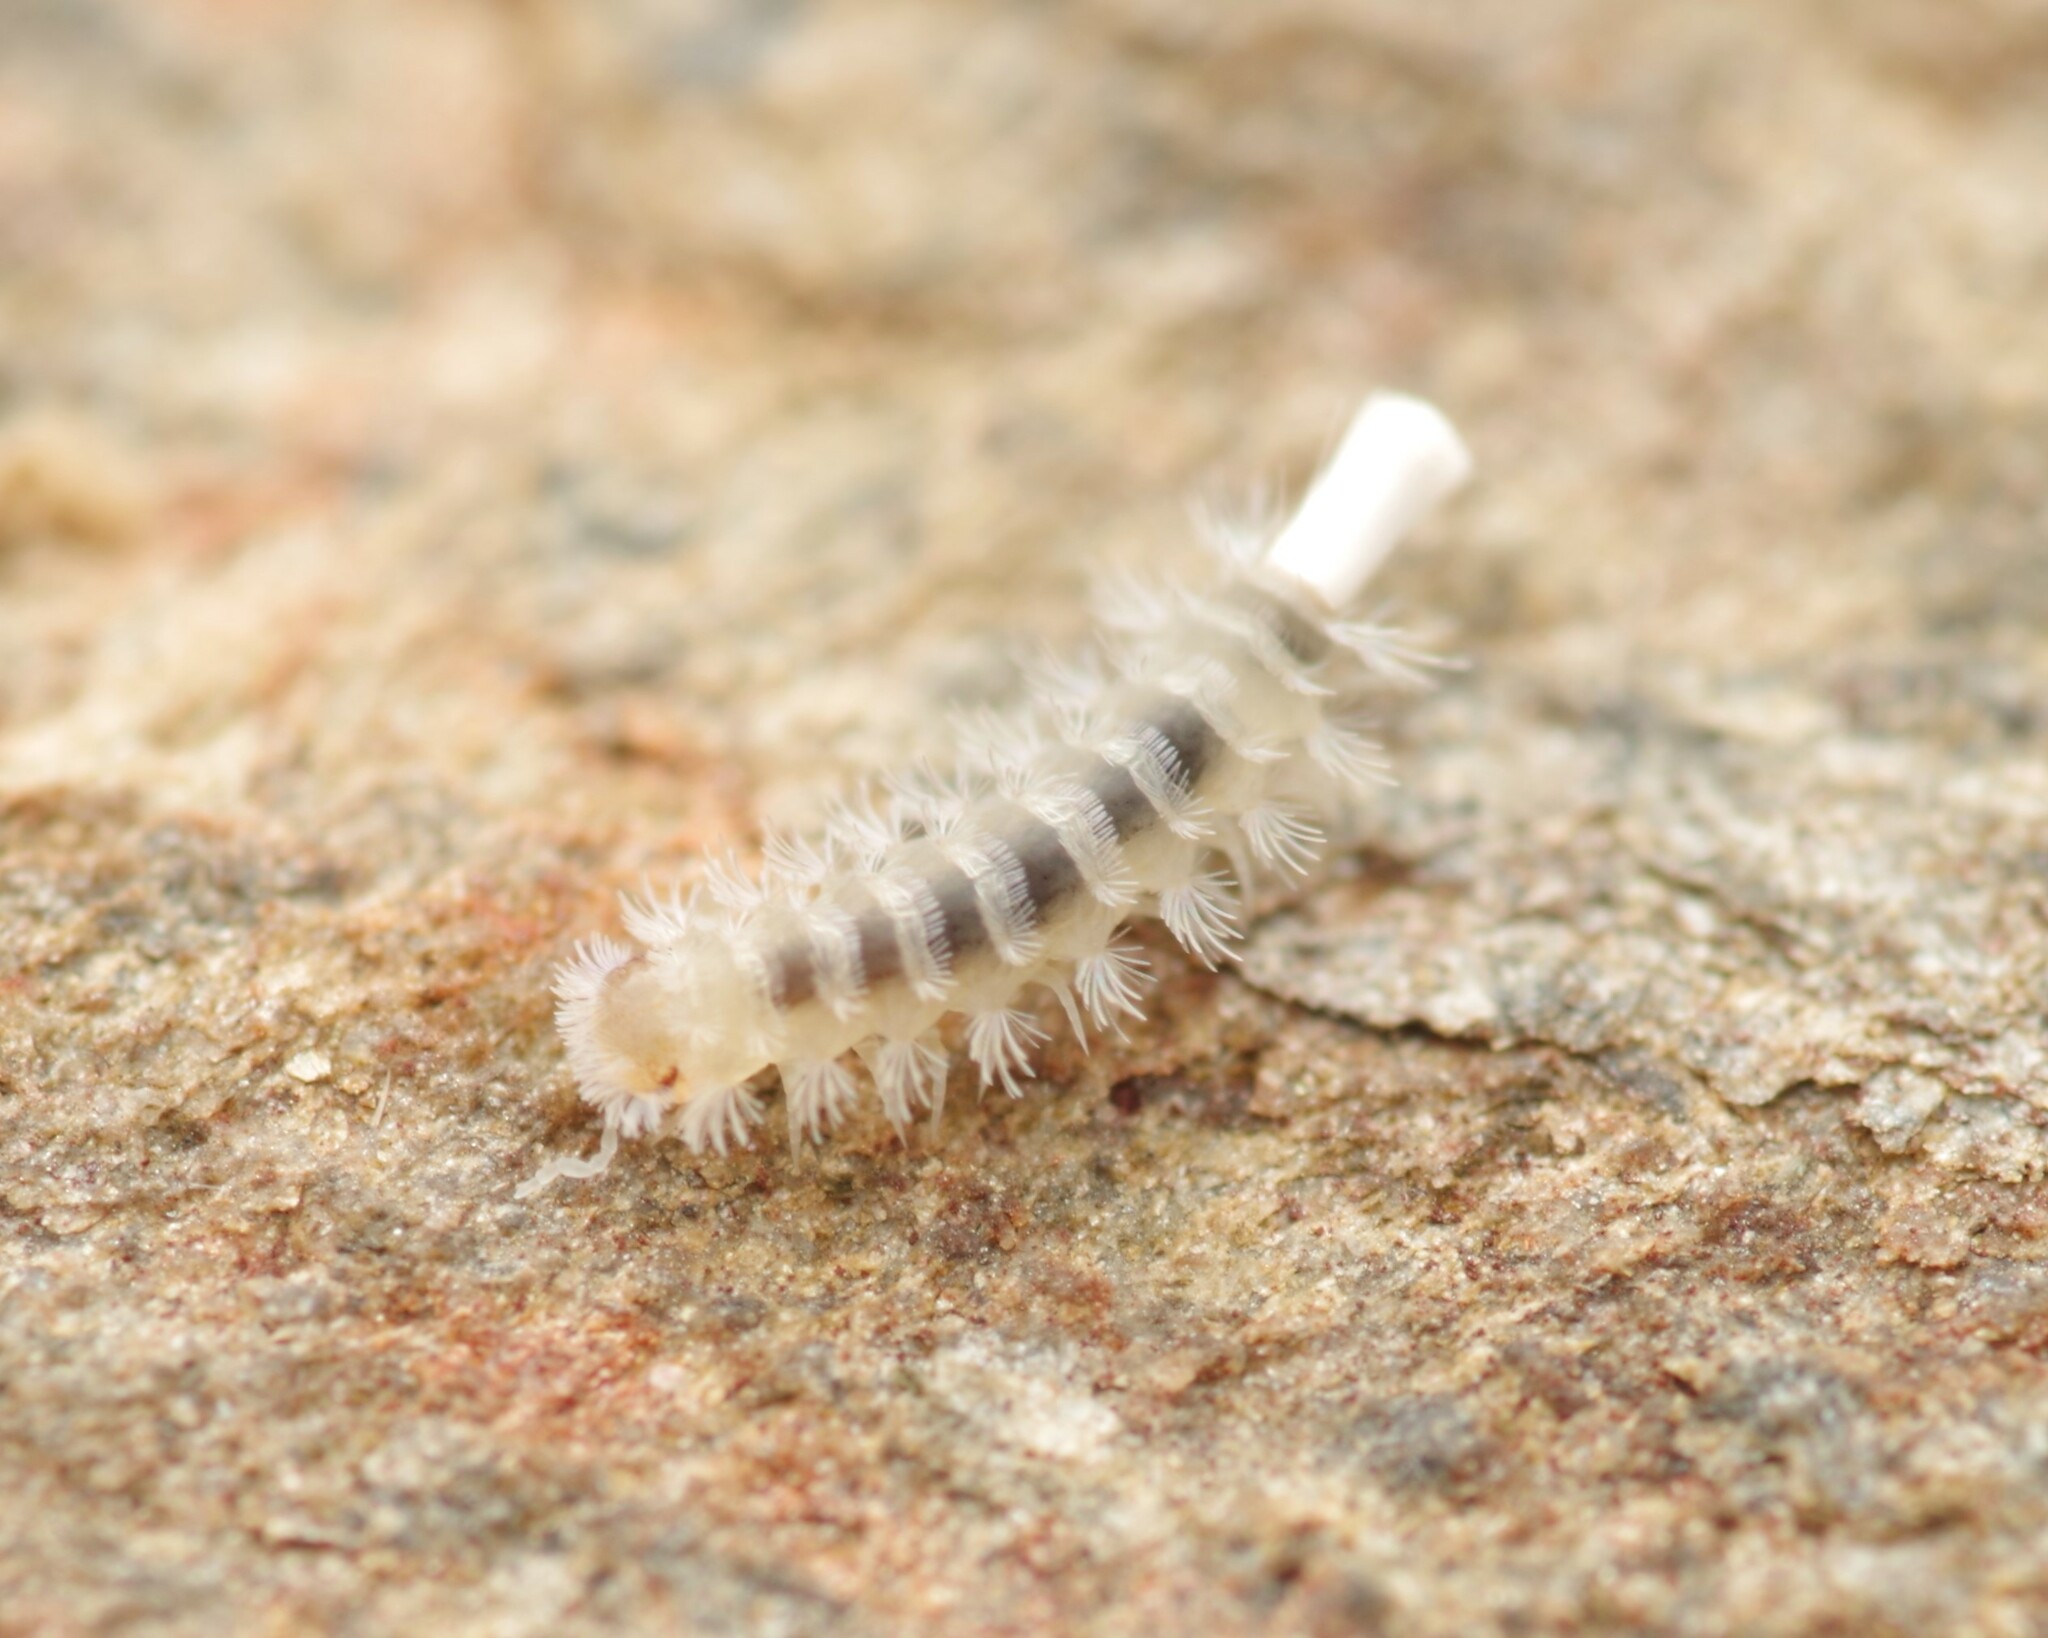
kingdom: Animalia
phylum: Arthropoda
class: Diplopoda
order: Polyxenida
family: Lophoproctidae
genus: Lophoproctus
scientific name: Lophoproctus lucidus
